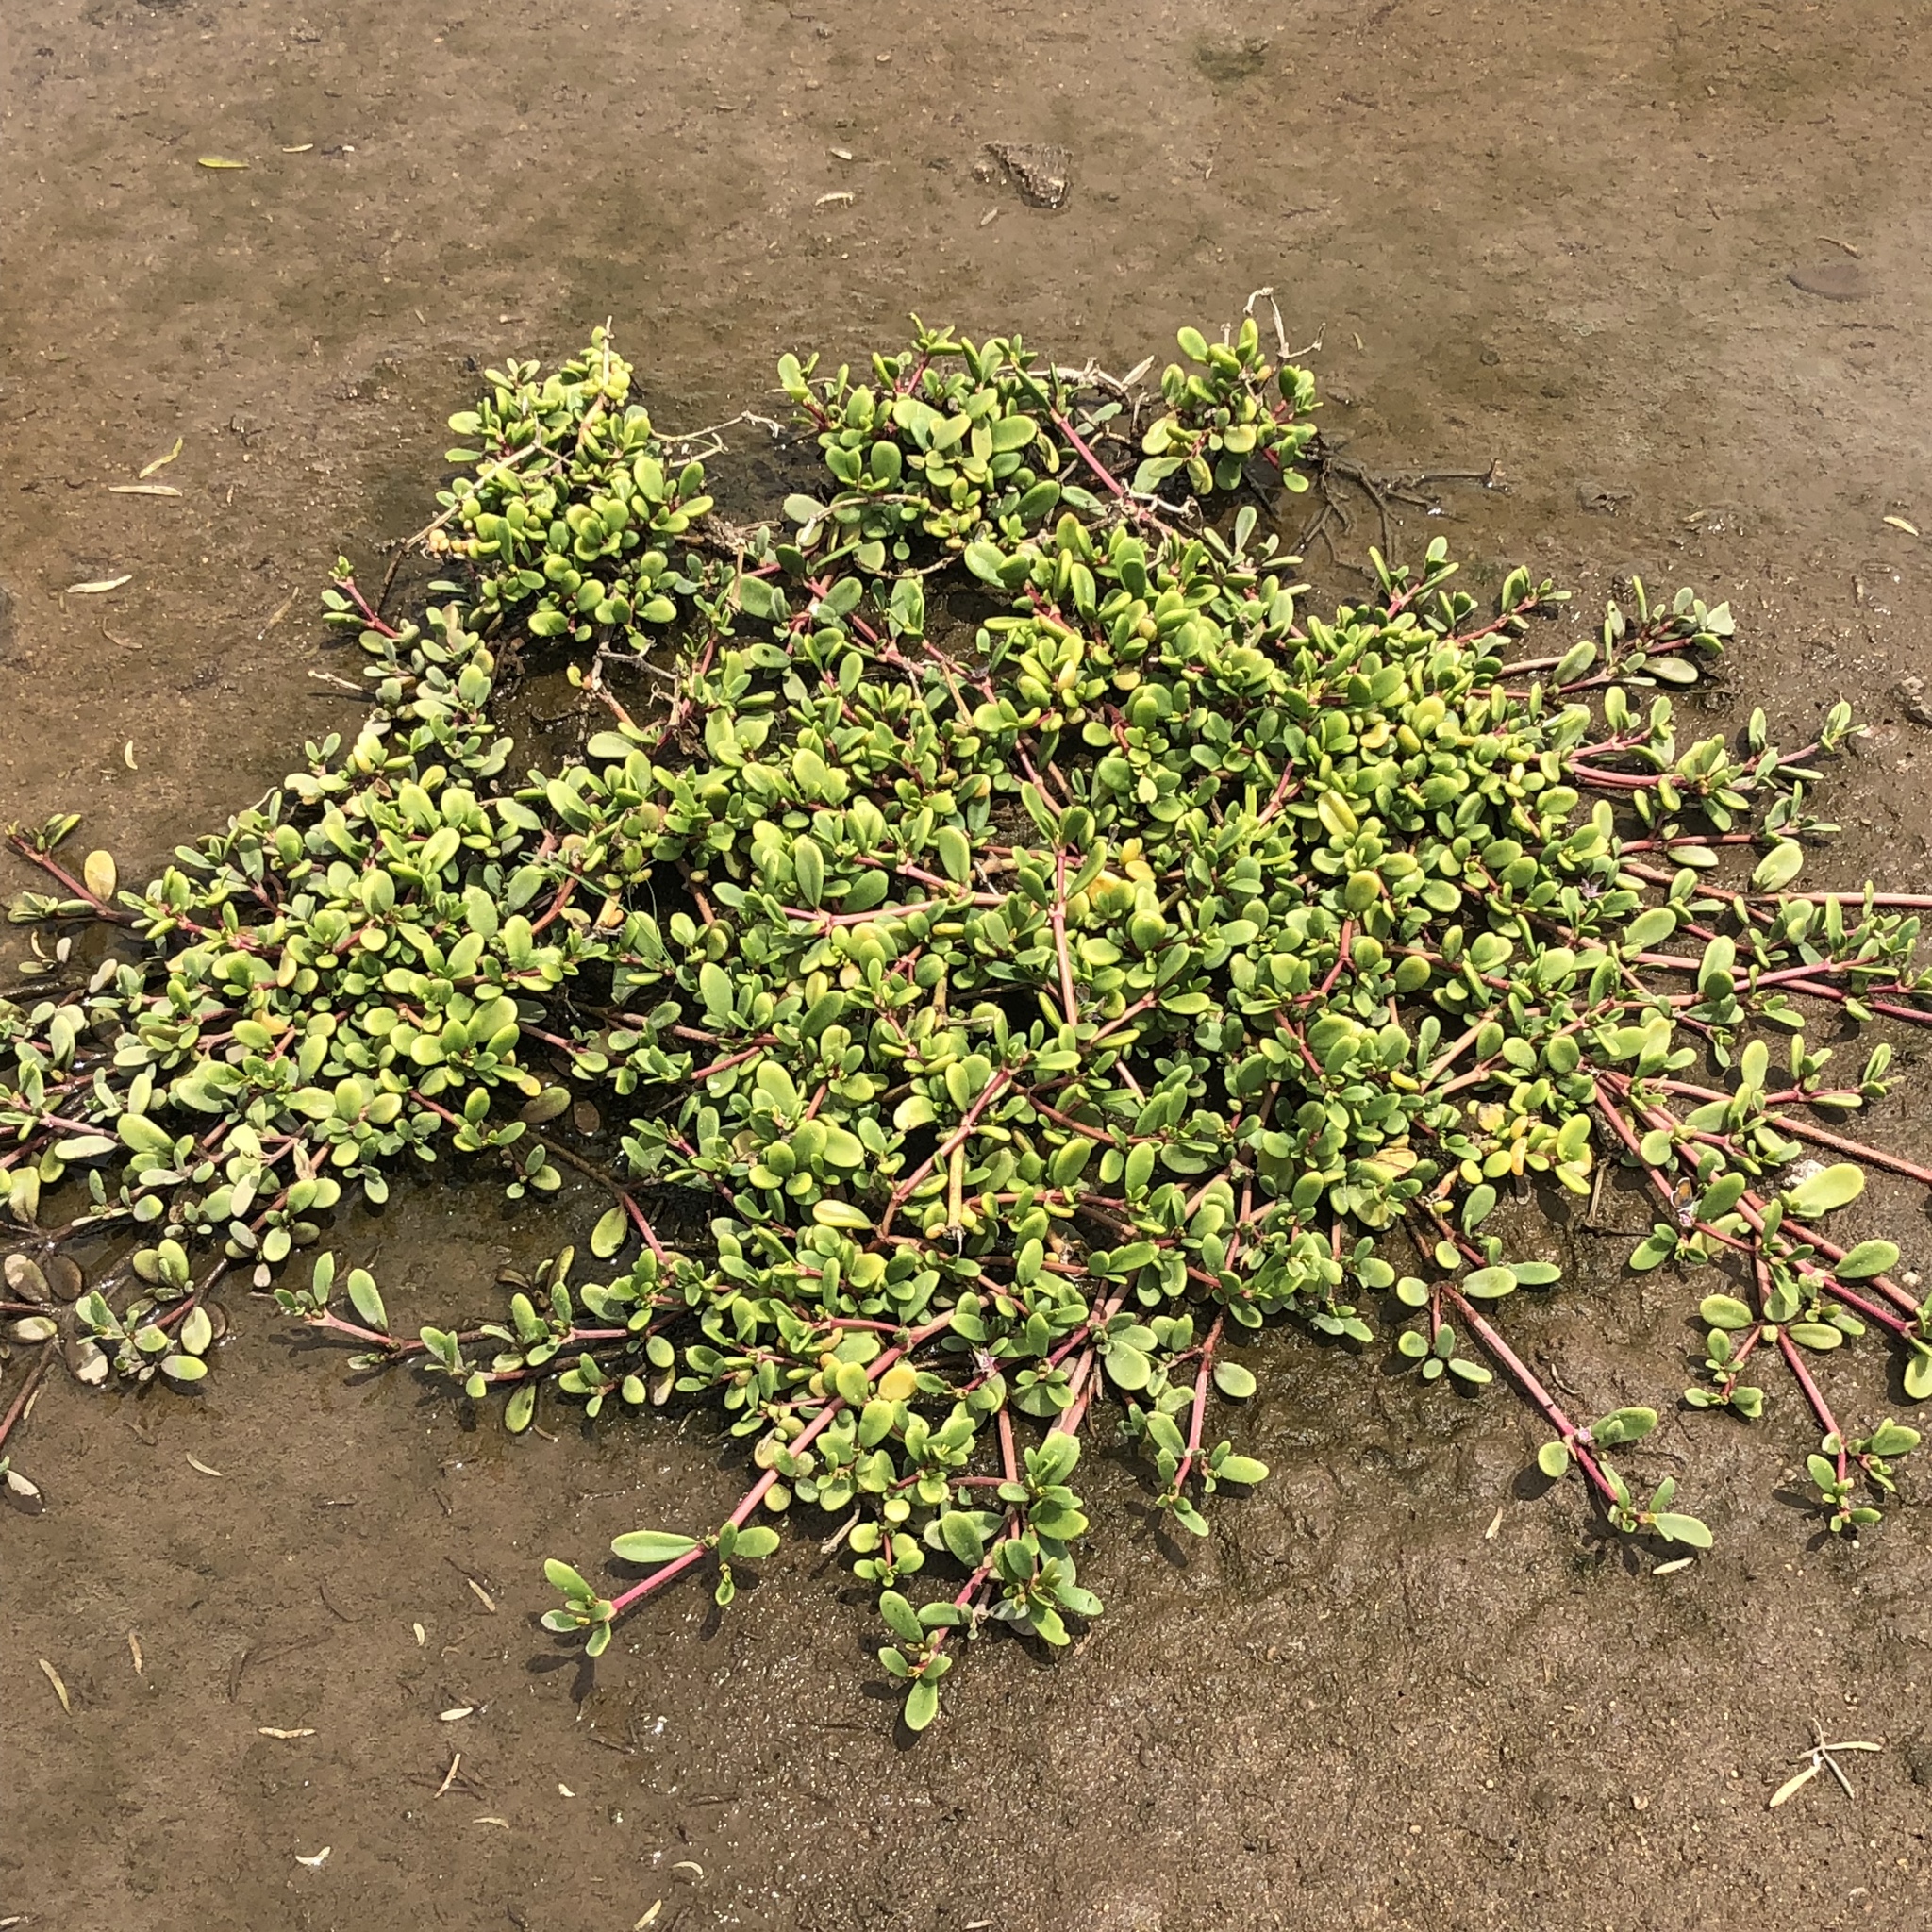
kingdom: Plantae
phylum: Tracheophyta
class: Magnoliopsida
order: Caryophyllales
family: Portulacaceae
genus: Portulaca
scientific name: Portulaca oleracea
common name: Common purslane
